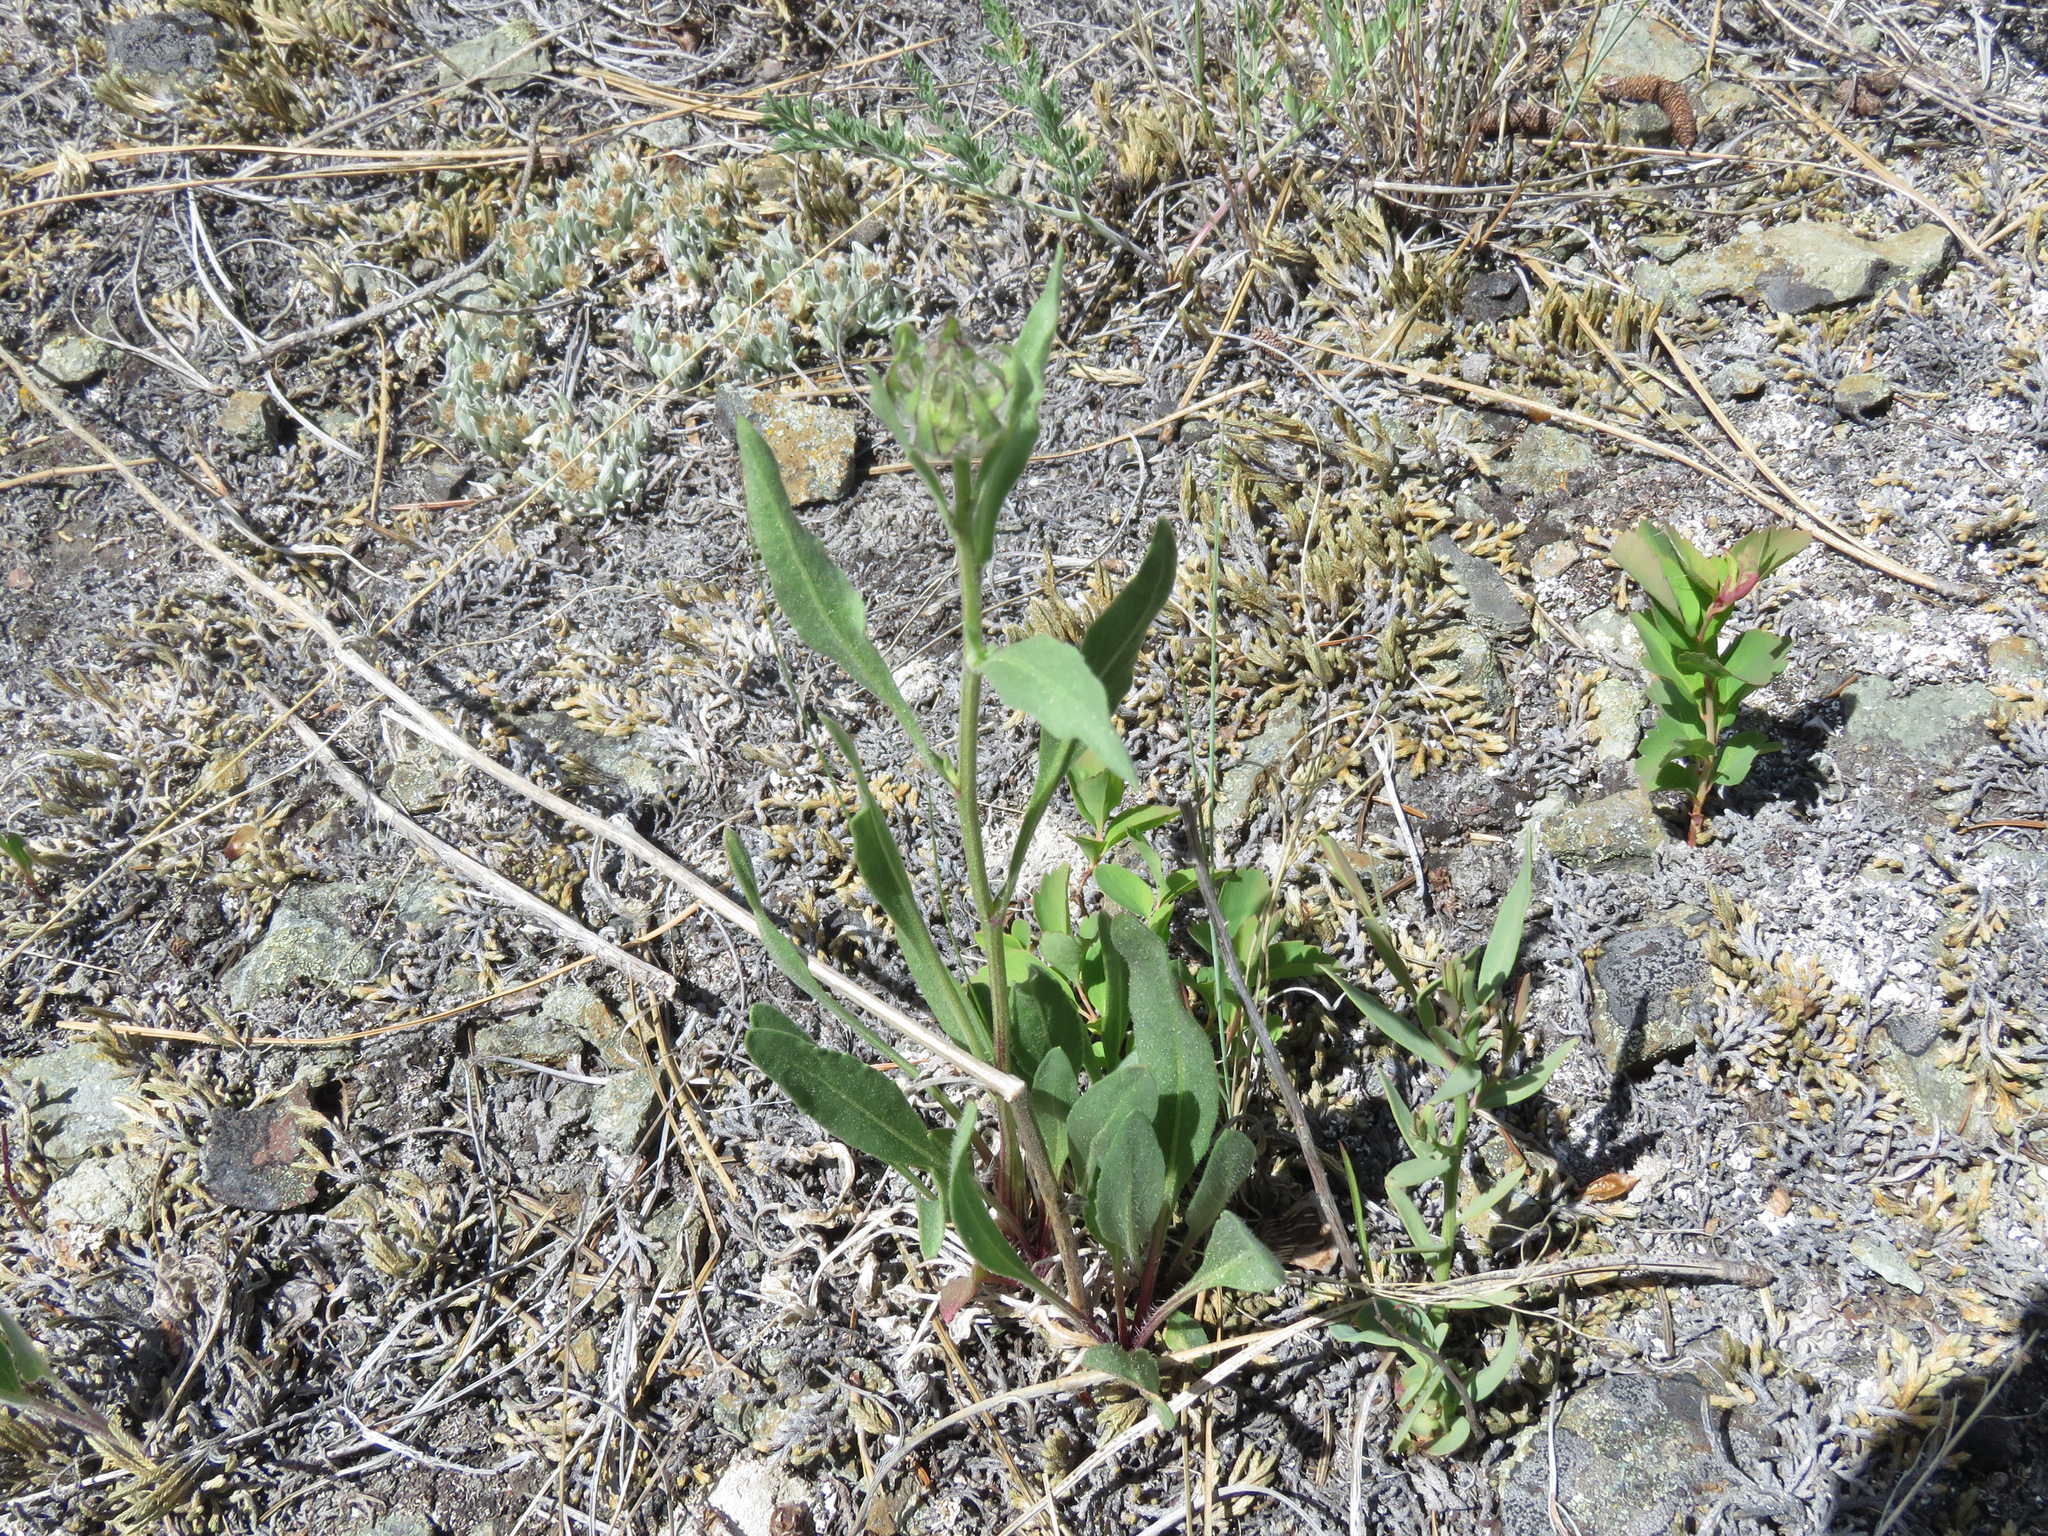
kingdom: Plantae
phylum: Tracheophyta
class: Magnoliopsida
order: Asterales
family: Asteraceae
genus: Gaillardia
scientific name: Gaillardia aristata
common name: Blanket-flower
